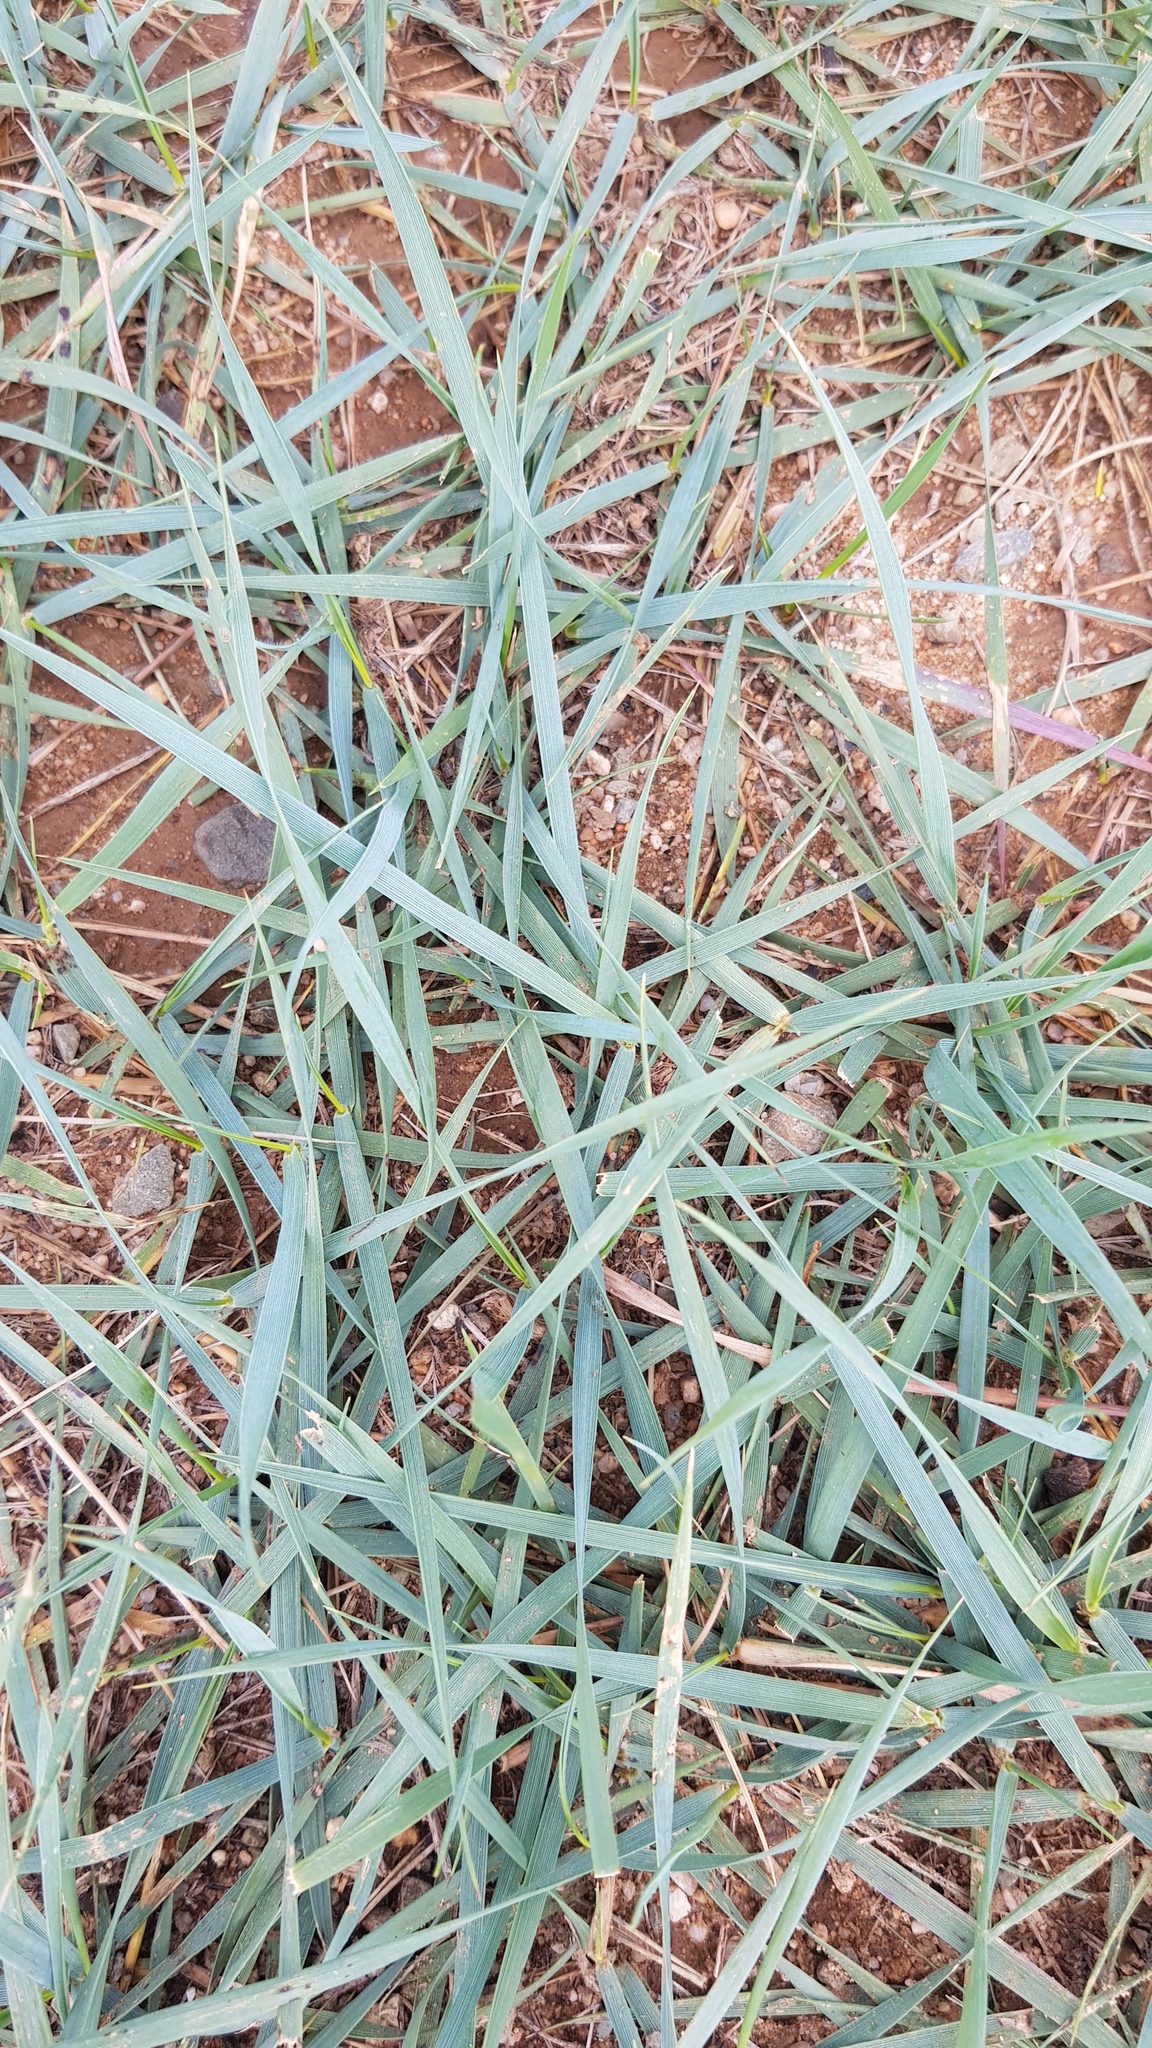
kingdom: Plantae
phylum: Tracheophyta
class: Liliopsida
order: Poales
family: Poaceae
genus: Leymus
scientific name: Leymus chinensis
